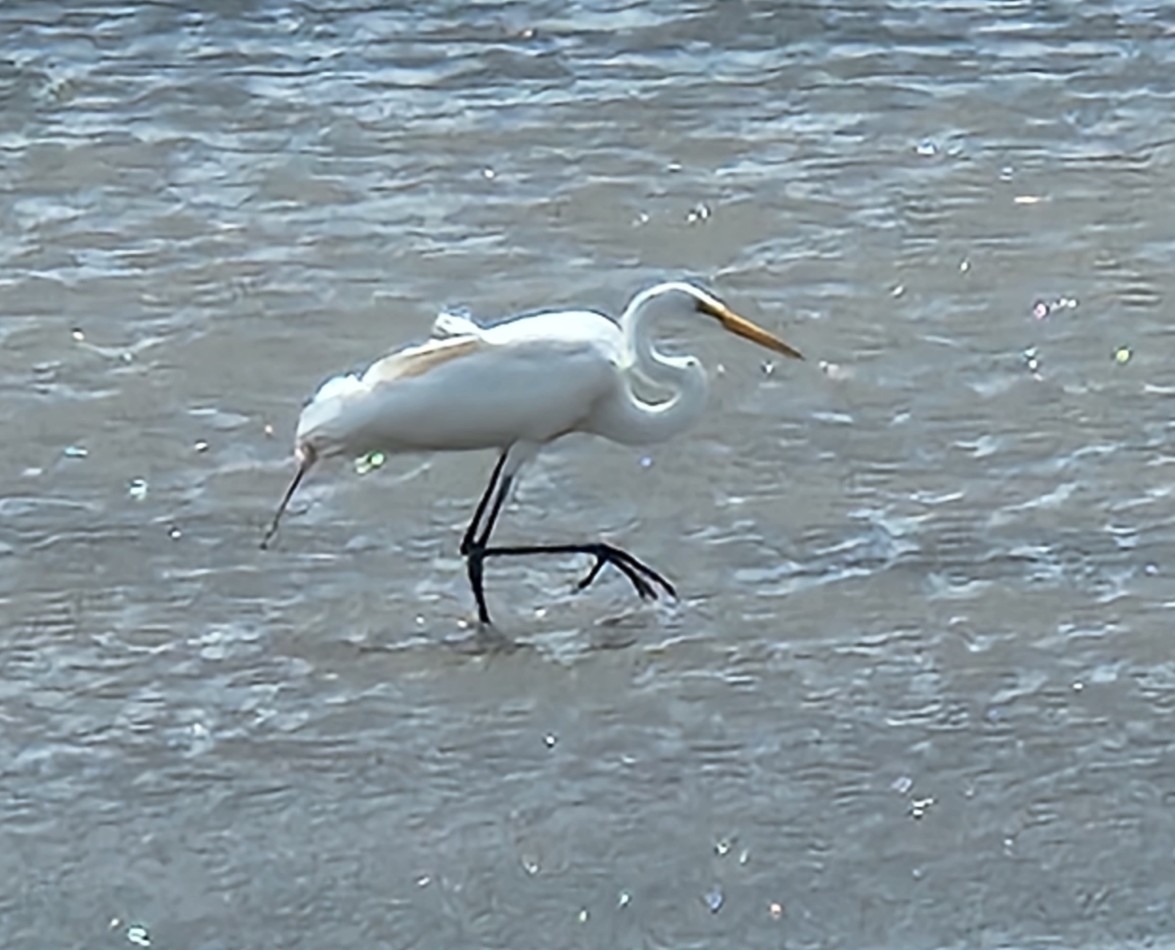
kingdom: Animalia
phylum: Chordata
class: Aves
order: Pelecaniformes
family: Ardeidae
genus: Ardea
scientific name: Ardea alba
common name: Great egret
